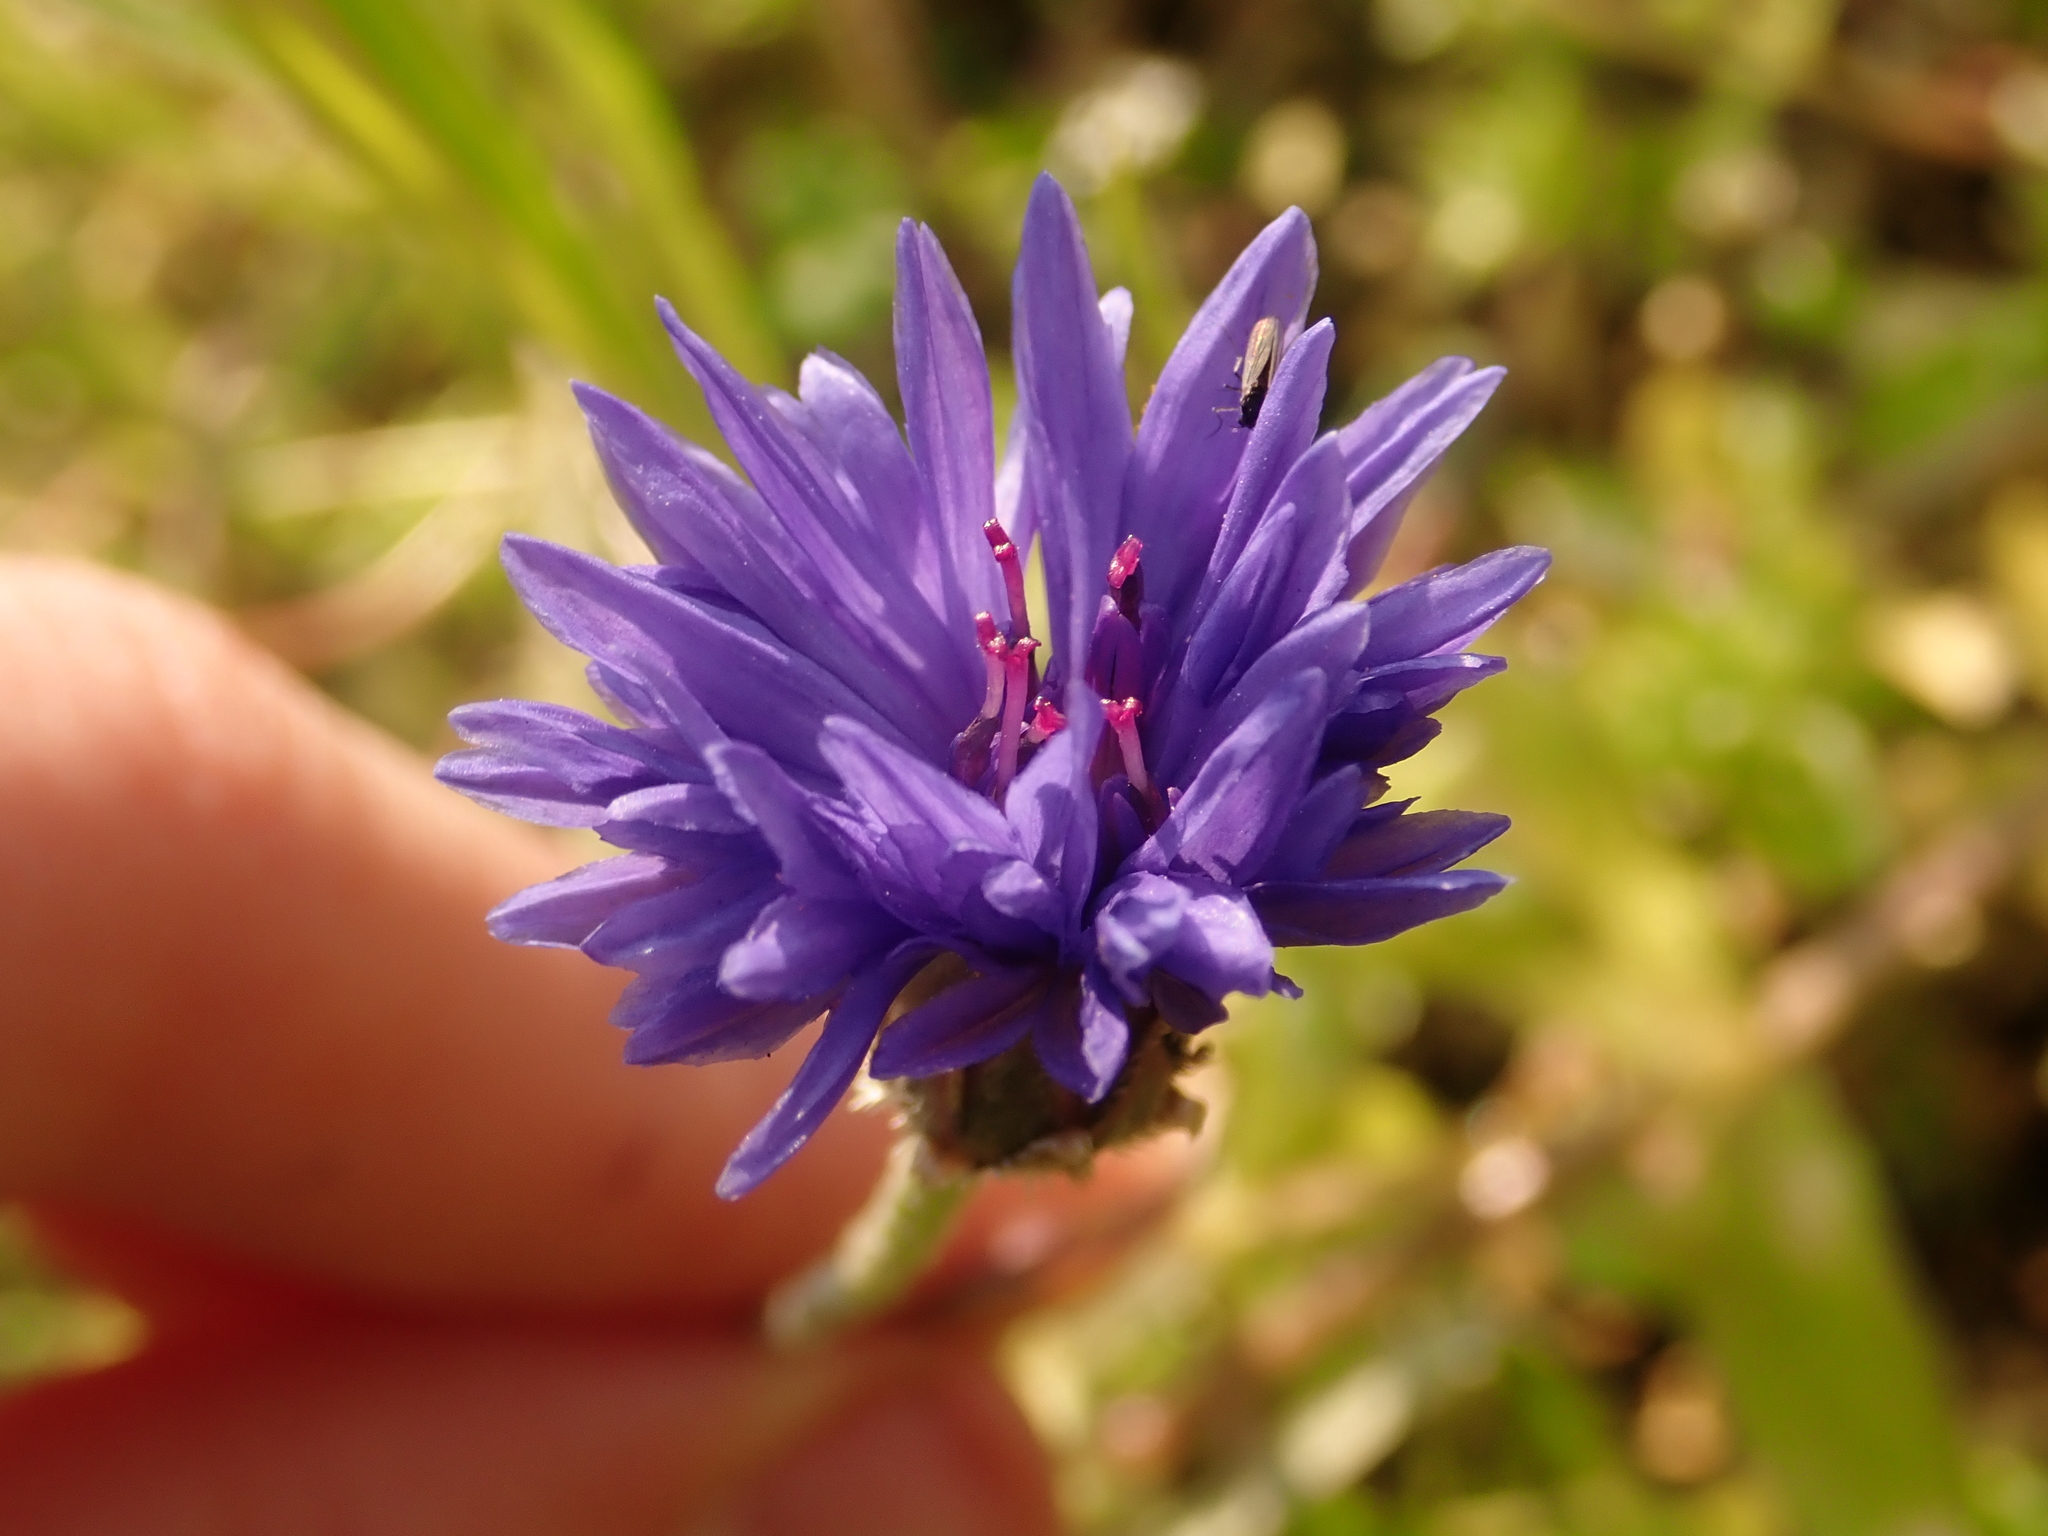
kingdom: Plantae
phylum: Tracheophyta
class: Magnoliopsida
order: Asterales
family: Asteraceae
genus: Centaurea
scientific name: Centaurea cyanus
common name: Cornflower
